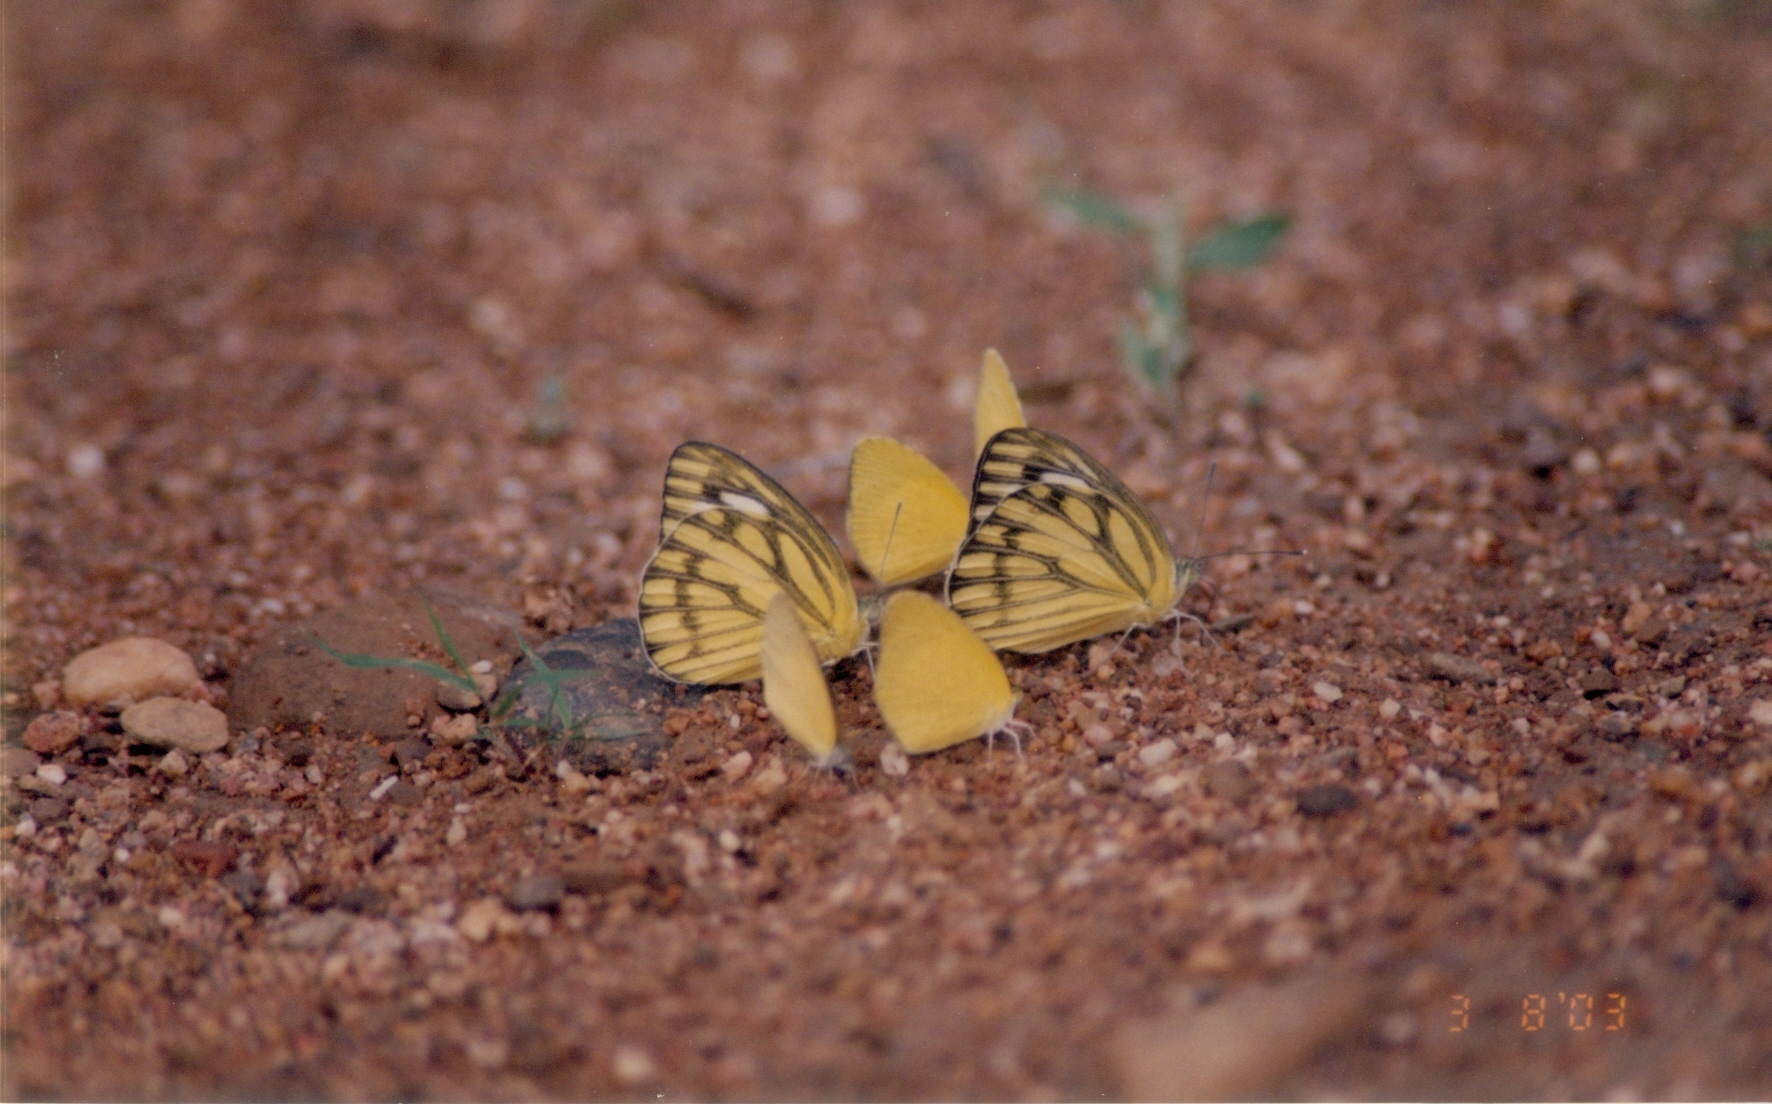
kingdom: Animalia
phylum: Arthropoda
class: Insecta
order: Lepidoptera
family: Pieridae
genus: Cepora
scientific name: Cepora nerissa
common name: Common gull
